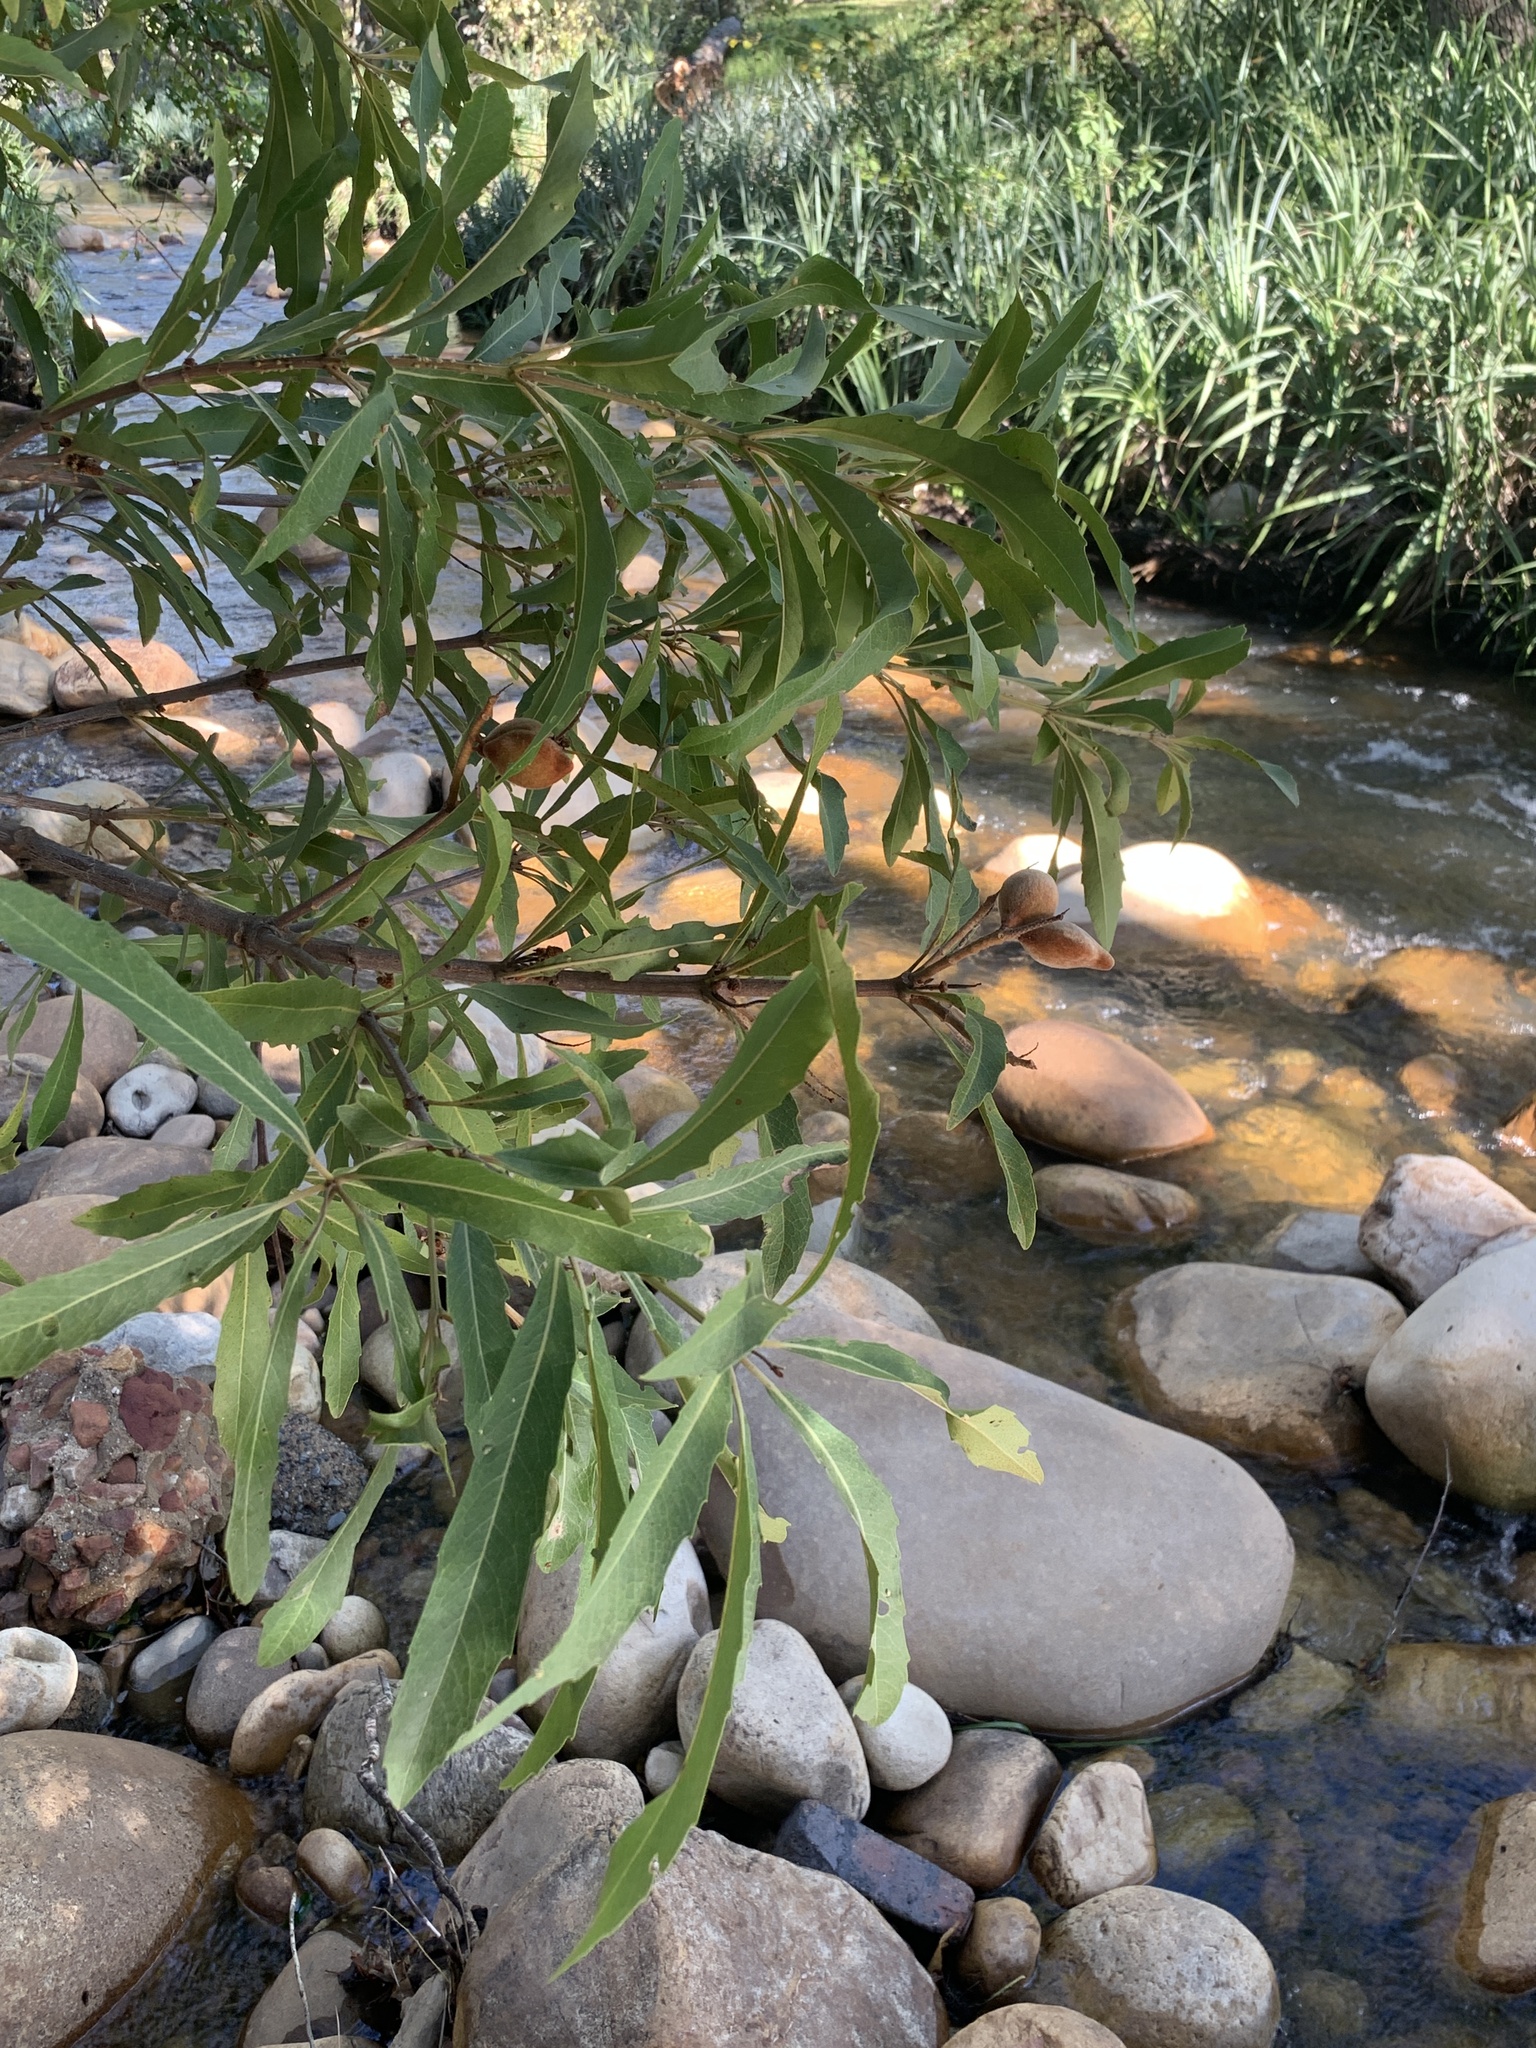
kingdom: Plantae
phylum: Tracheophyta
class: Magnoliopsida
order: Proteales
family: Proteaceae
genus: Brabejum
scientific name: Brabejum stellatifolium
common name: Wild almond
